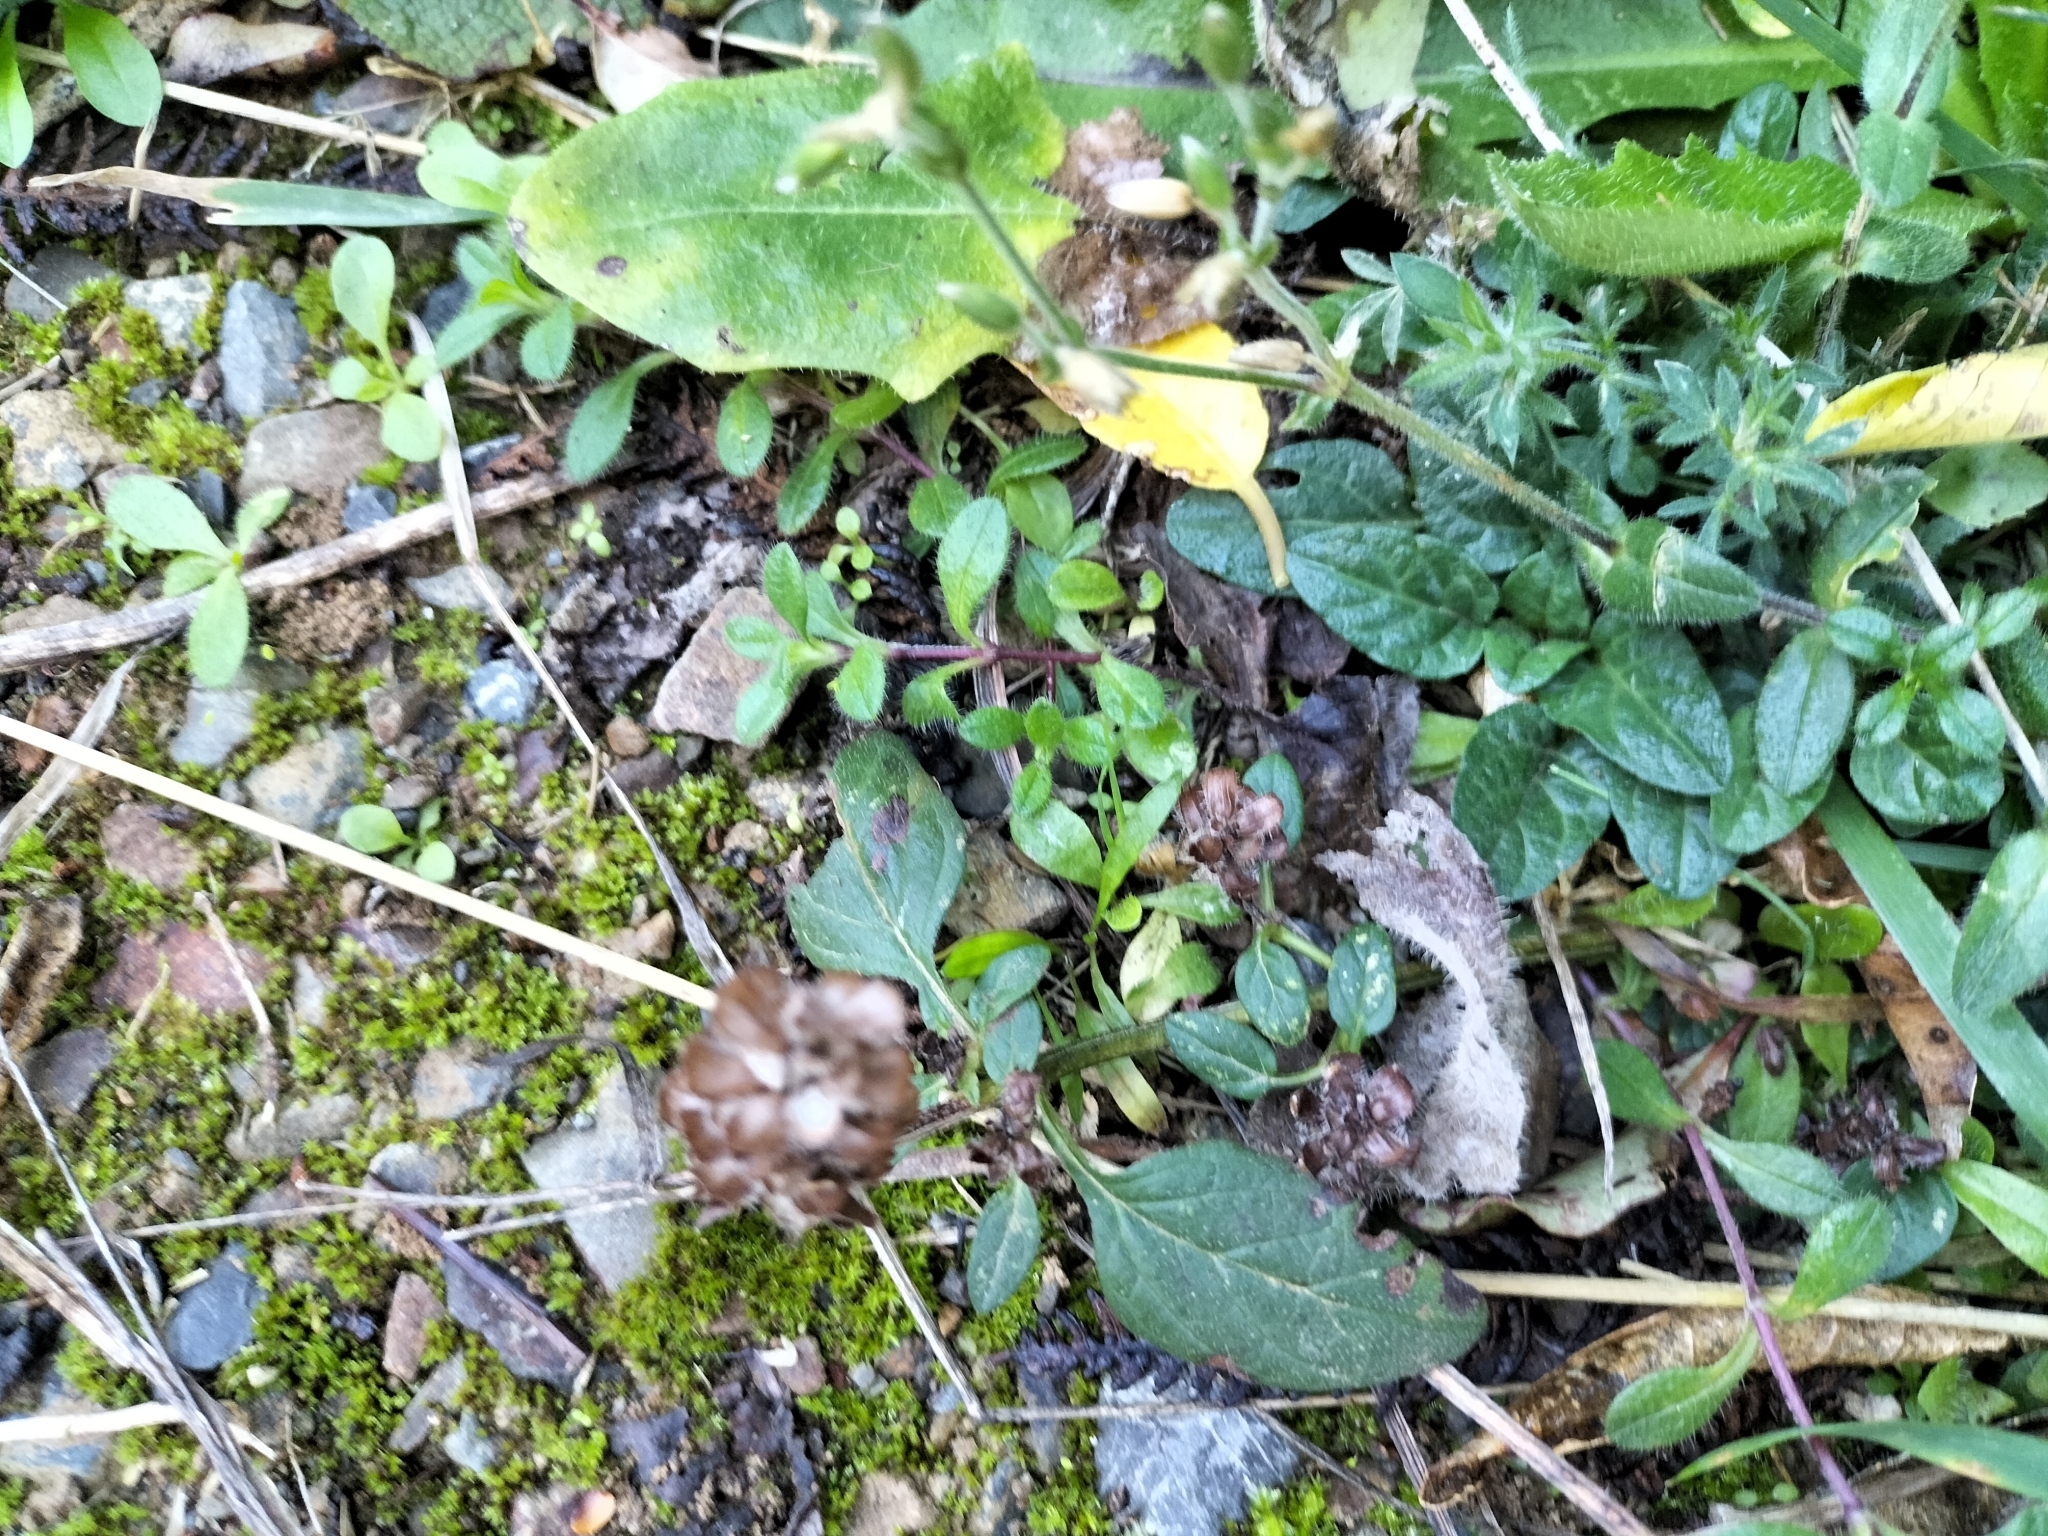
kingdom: Plantae
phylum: Tracheophyta
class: Magnoliopsida
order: Lamiales
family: Lamiaceae
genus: Prunella
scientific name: Prunella vulgaris
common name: Heal-all
